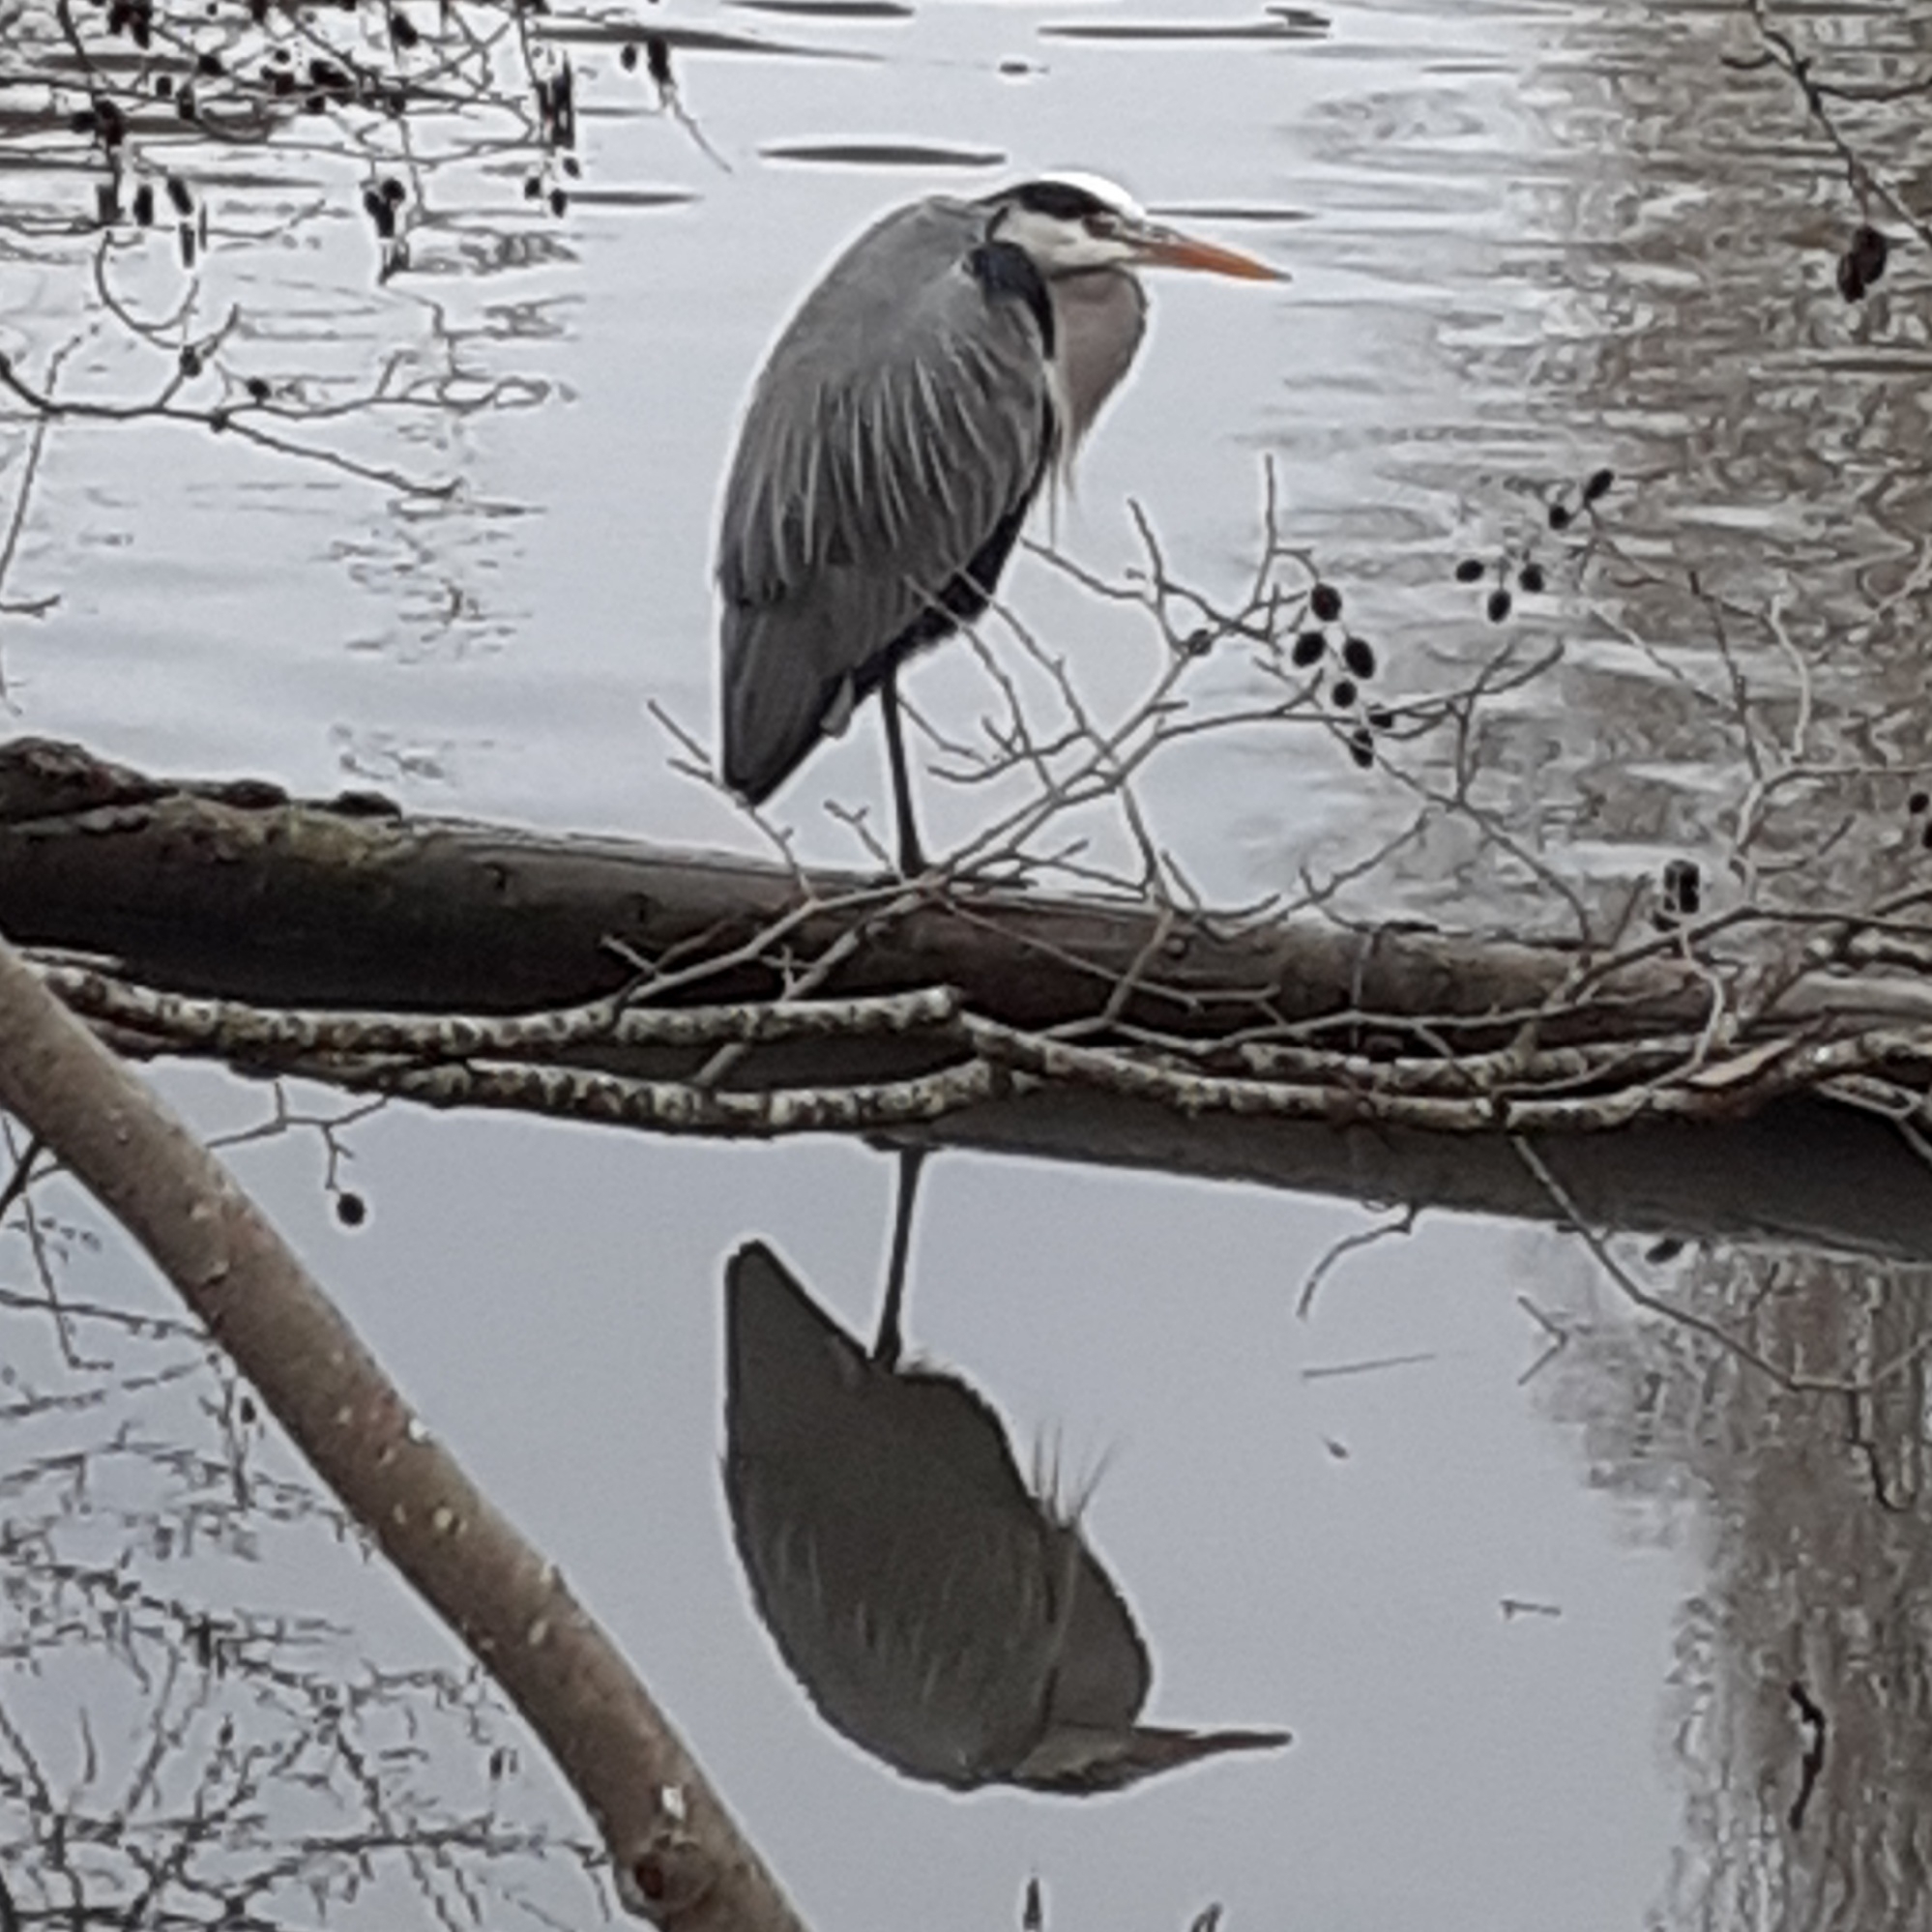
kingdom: Animalia
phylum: Chordata
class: Aves
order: Pelecaniformes
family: Ardeidae
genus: Ardea
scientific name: Ardea cinerea
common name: Grey heron
